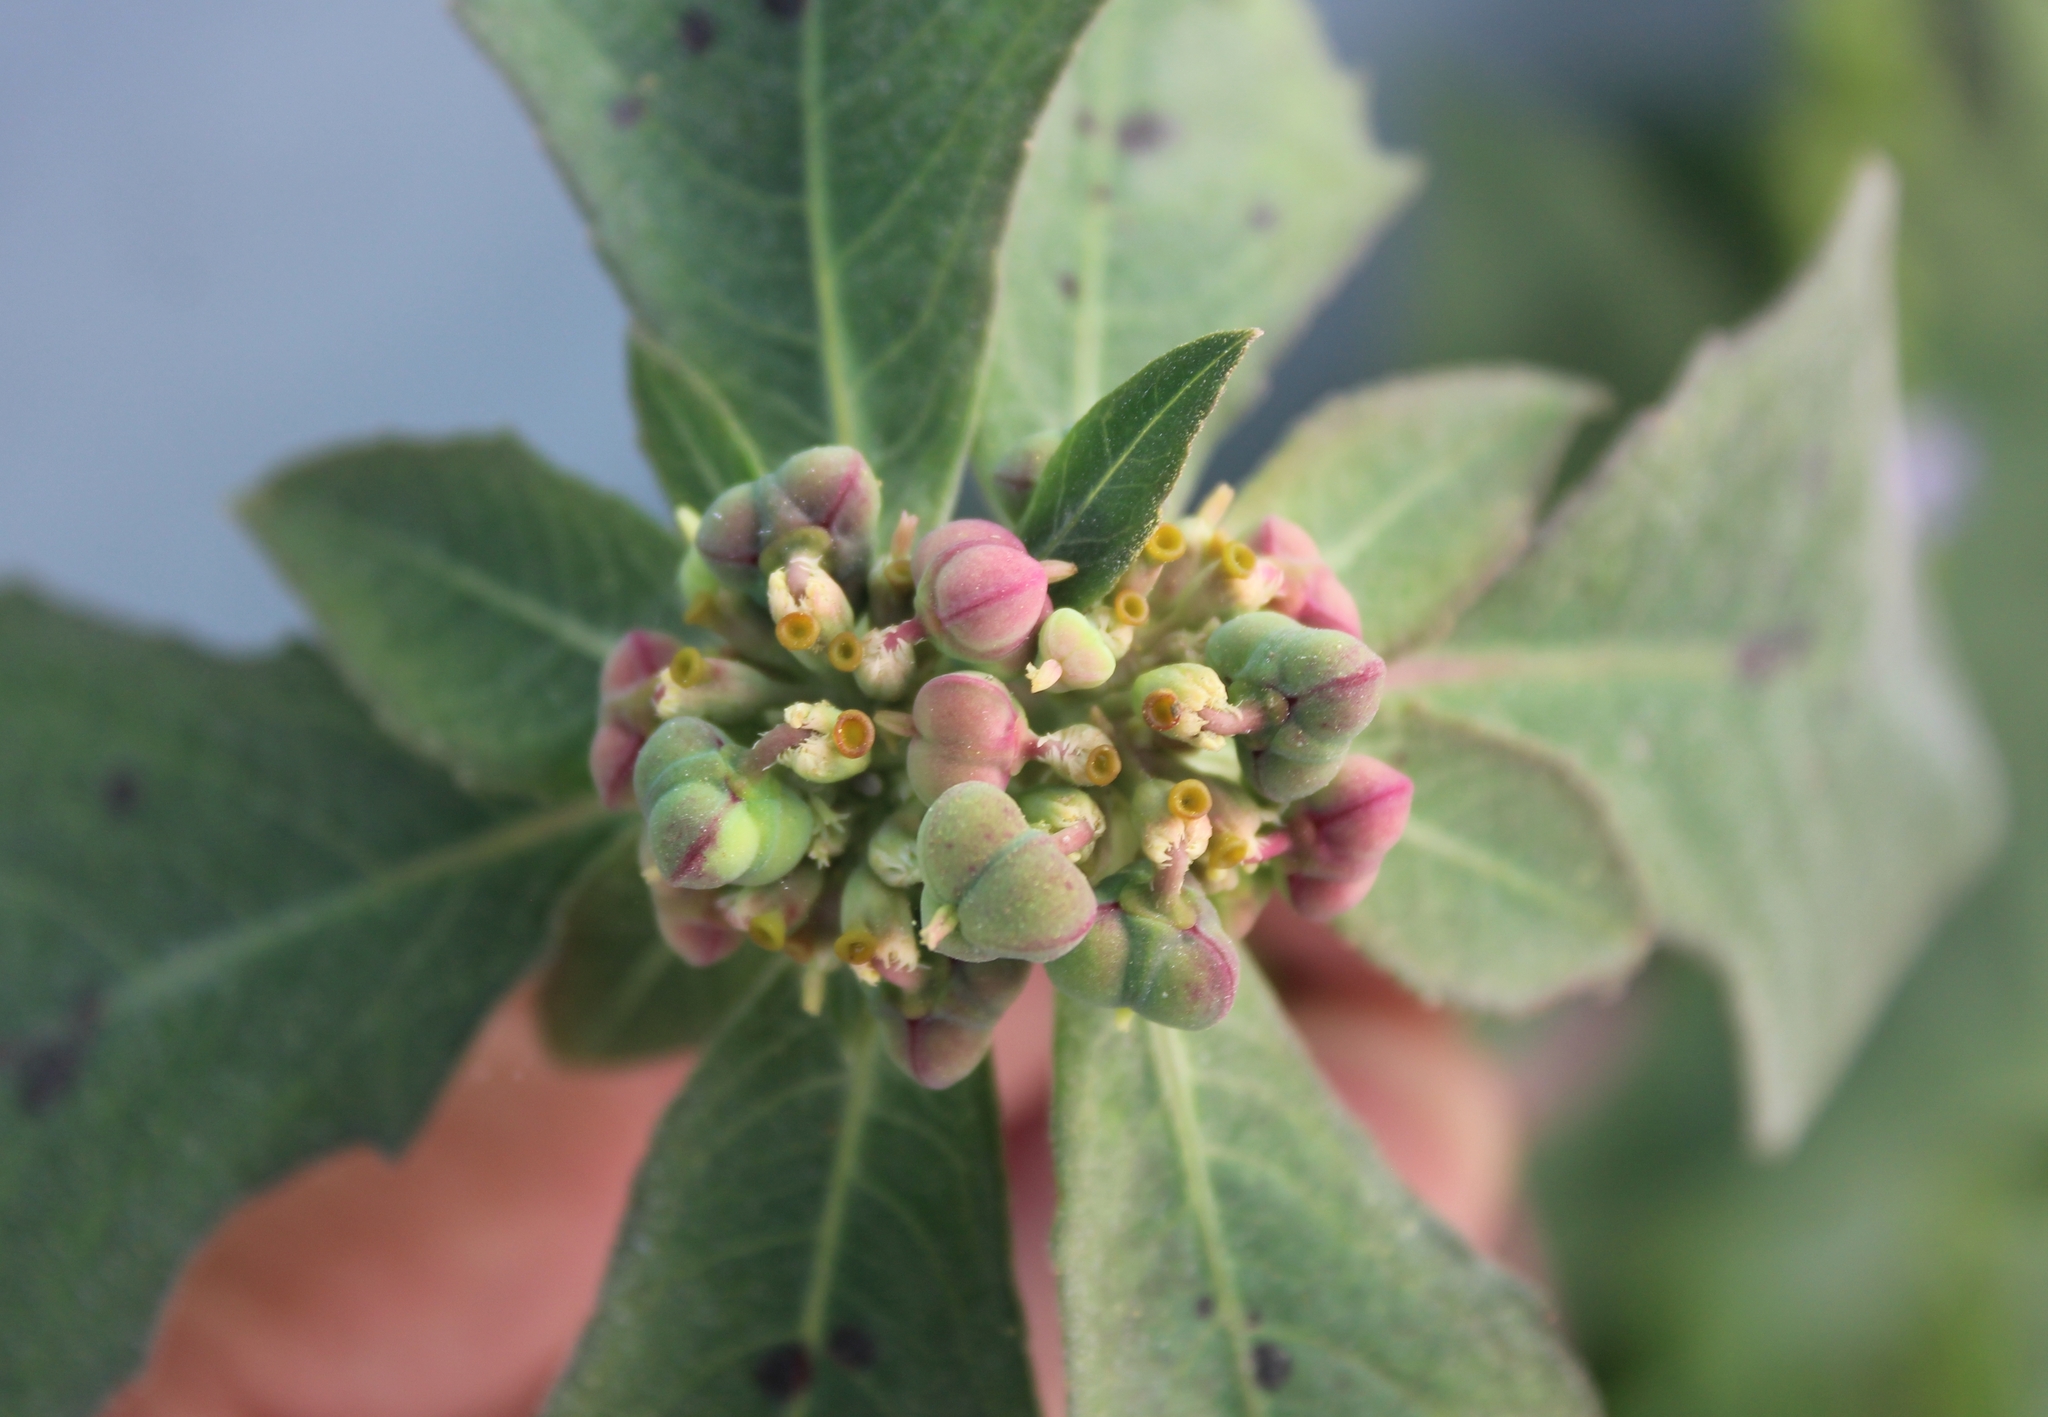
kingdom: Plantae
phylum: Tracheophyta
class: Magnoliopsida
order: Malpighiales
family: Euphorbiaceae
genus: Euphorbia
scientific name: Euphorbia heterophylla
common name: Mexican fireplant
